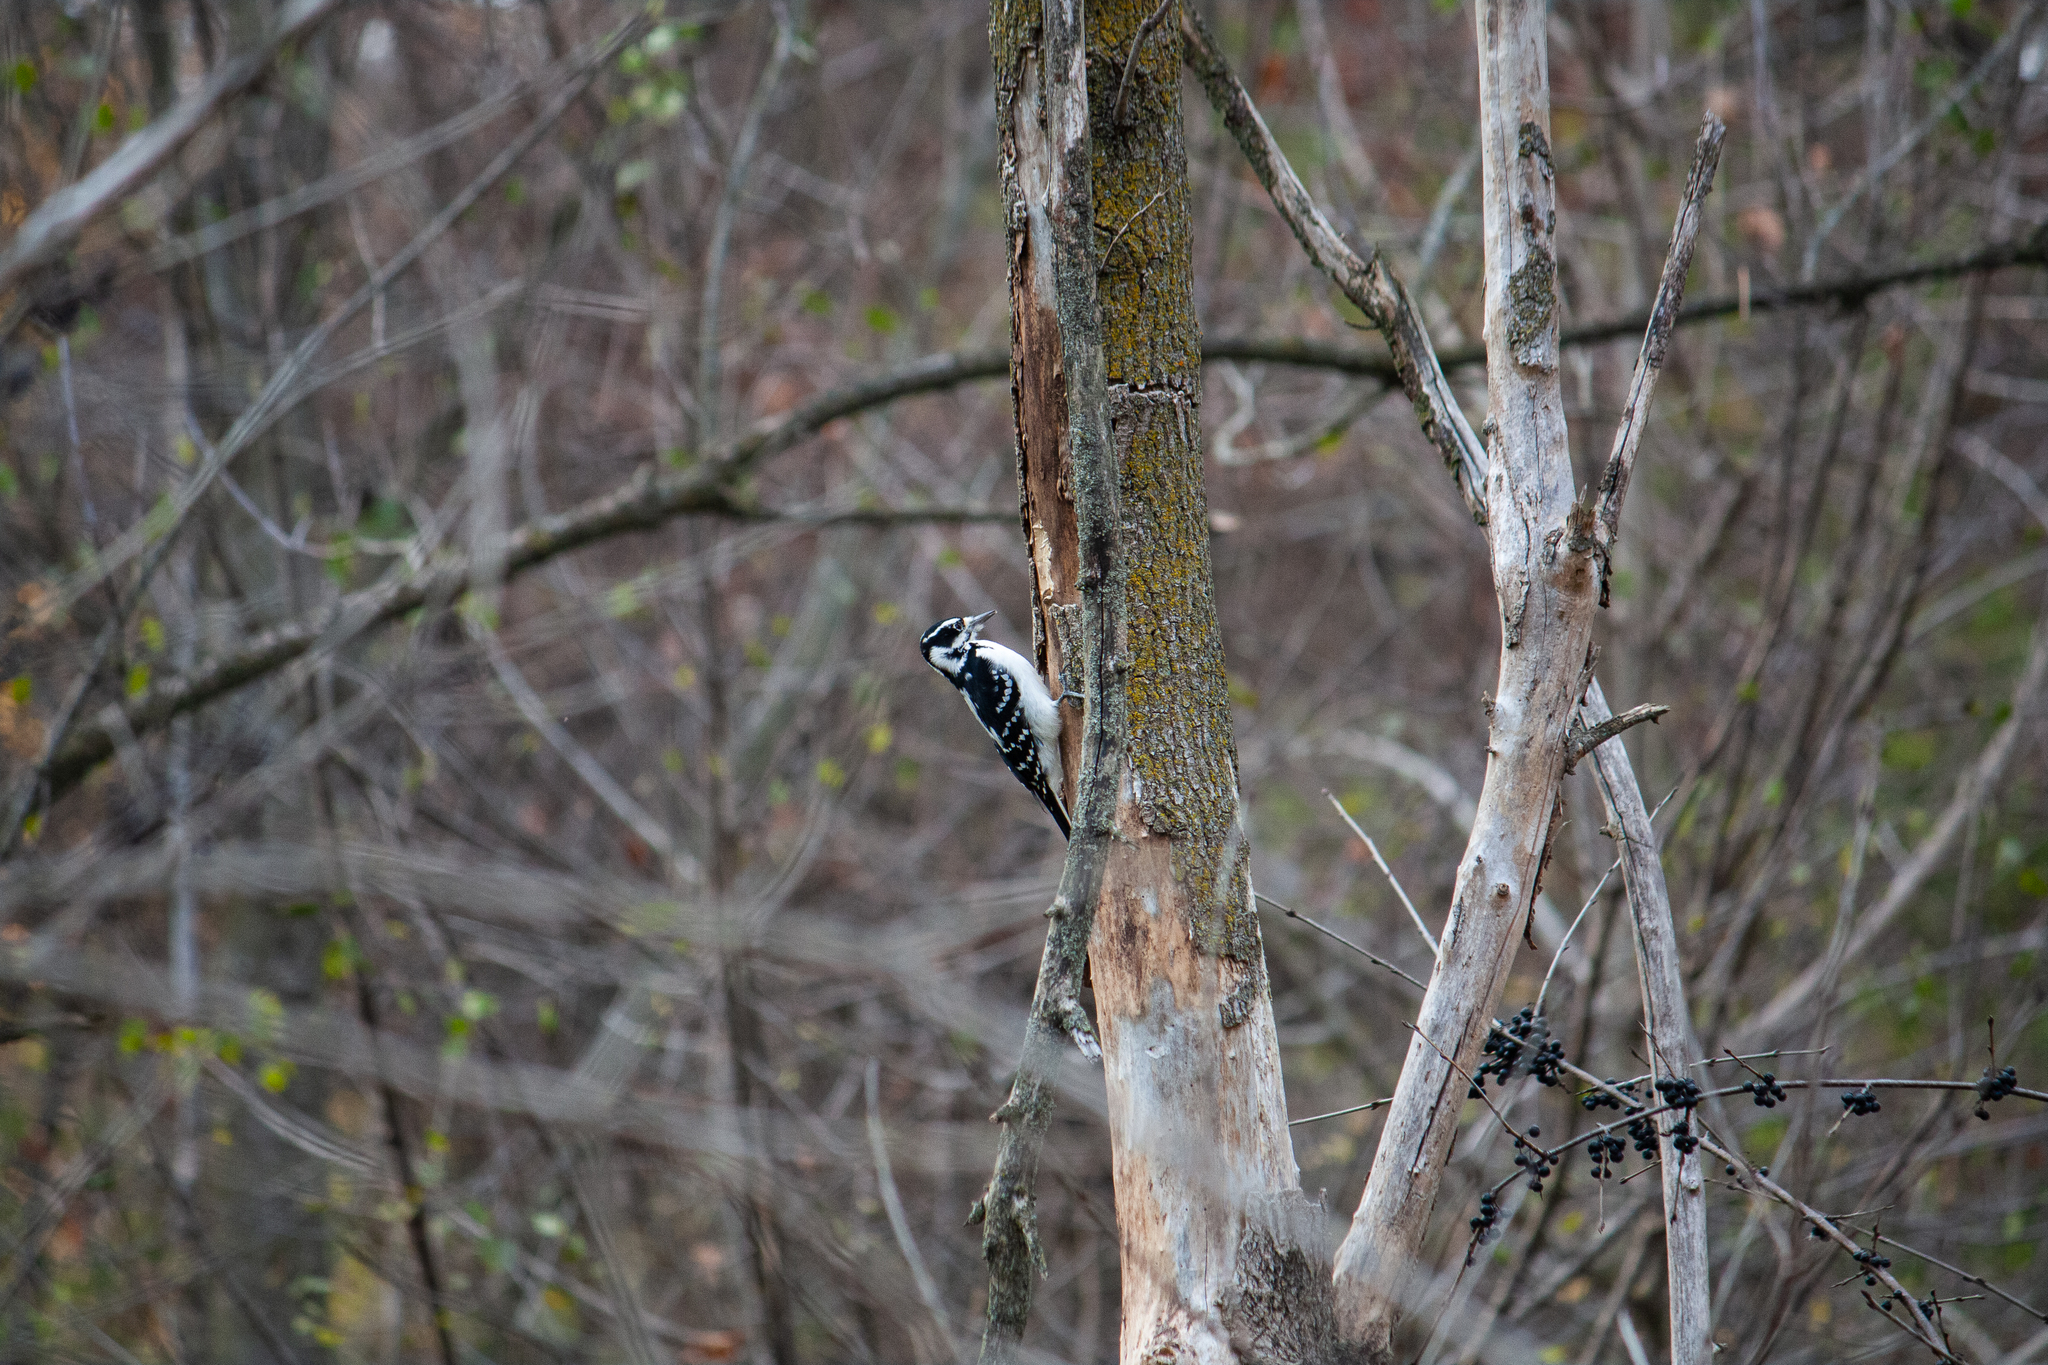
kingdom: Animalia
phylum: Chordata
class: Aves
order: Piciformes
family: Picidae
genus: Dryobates
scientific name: Dryobates pubescens
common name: Downy woodpecker
